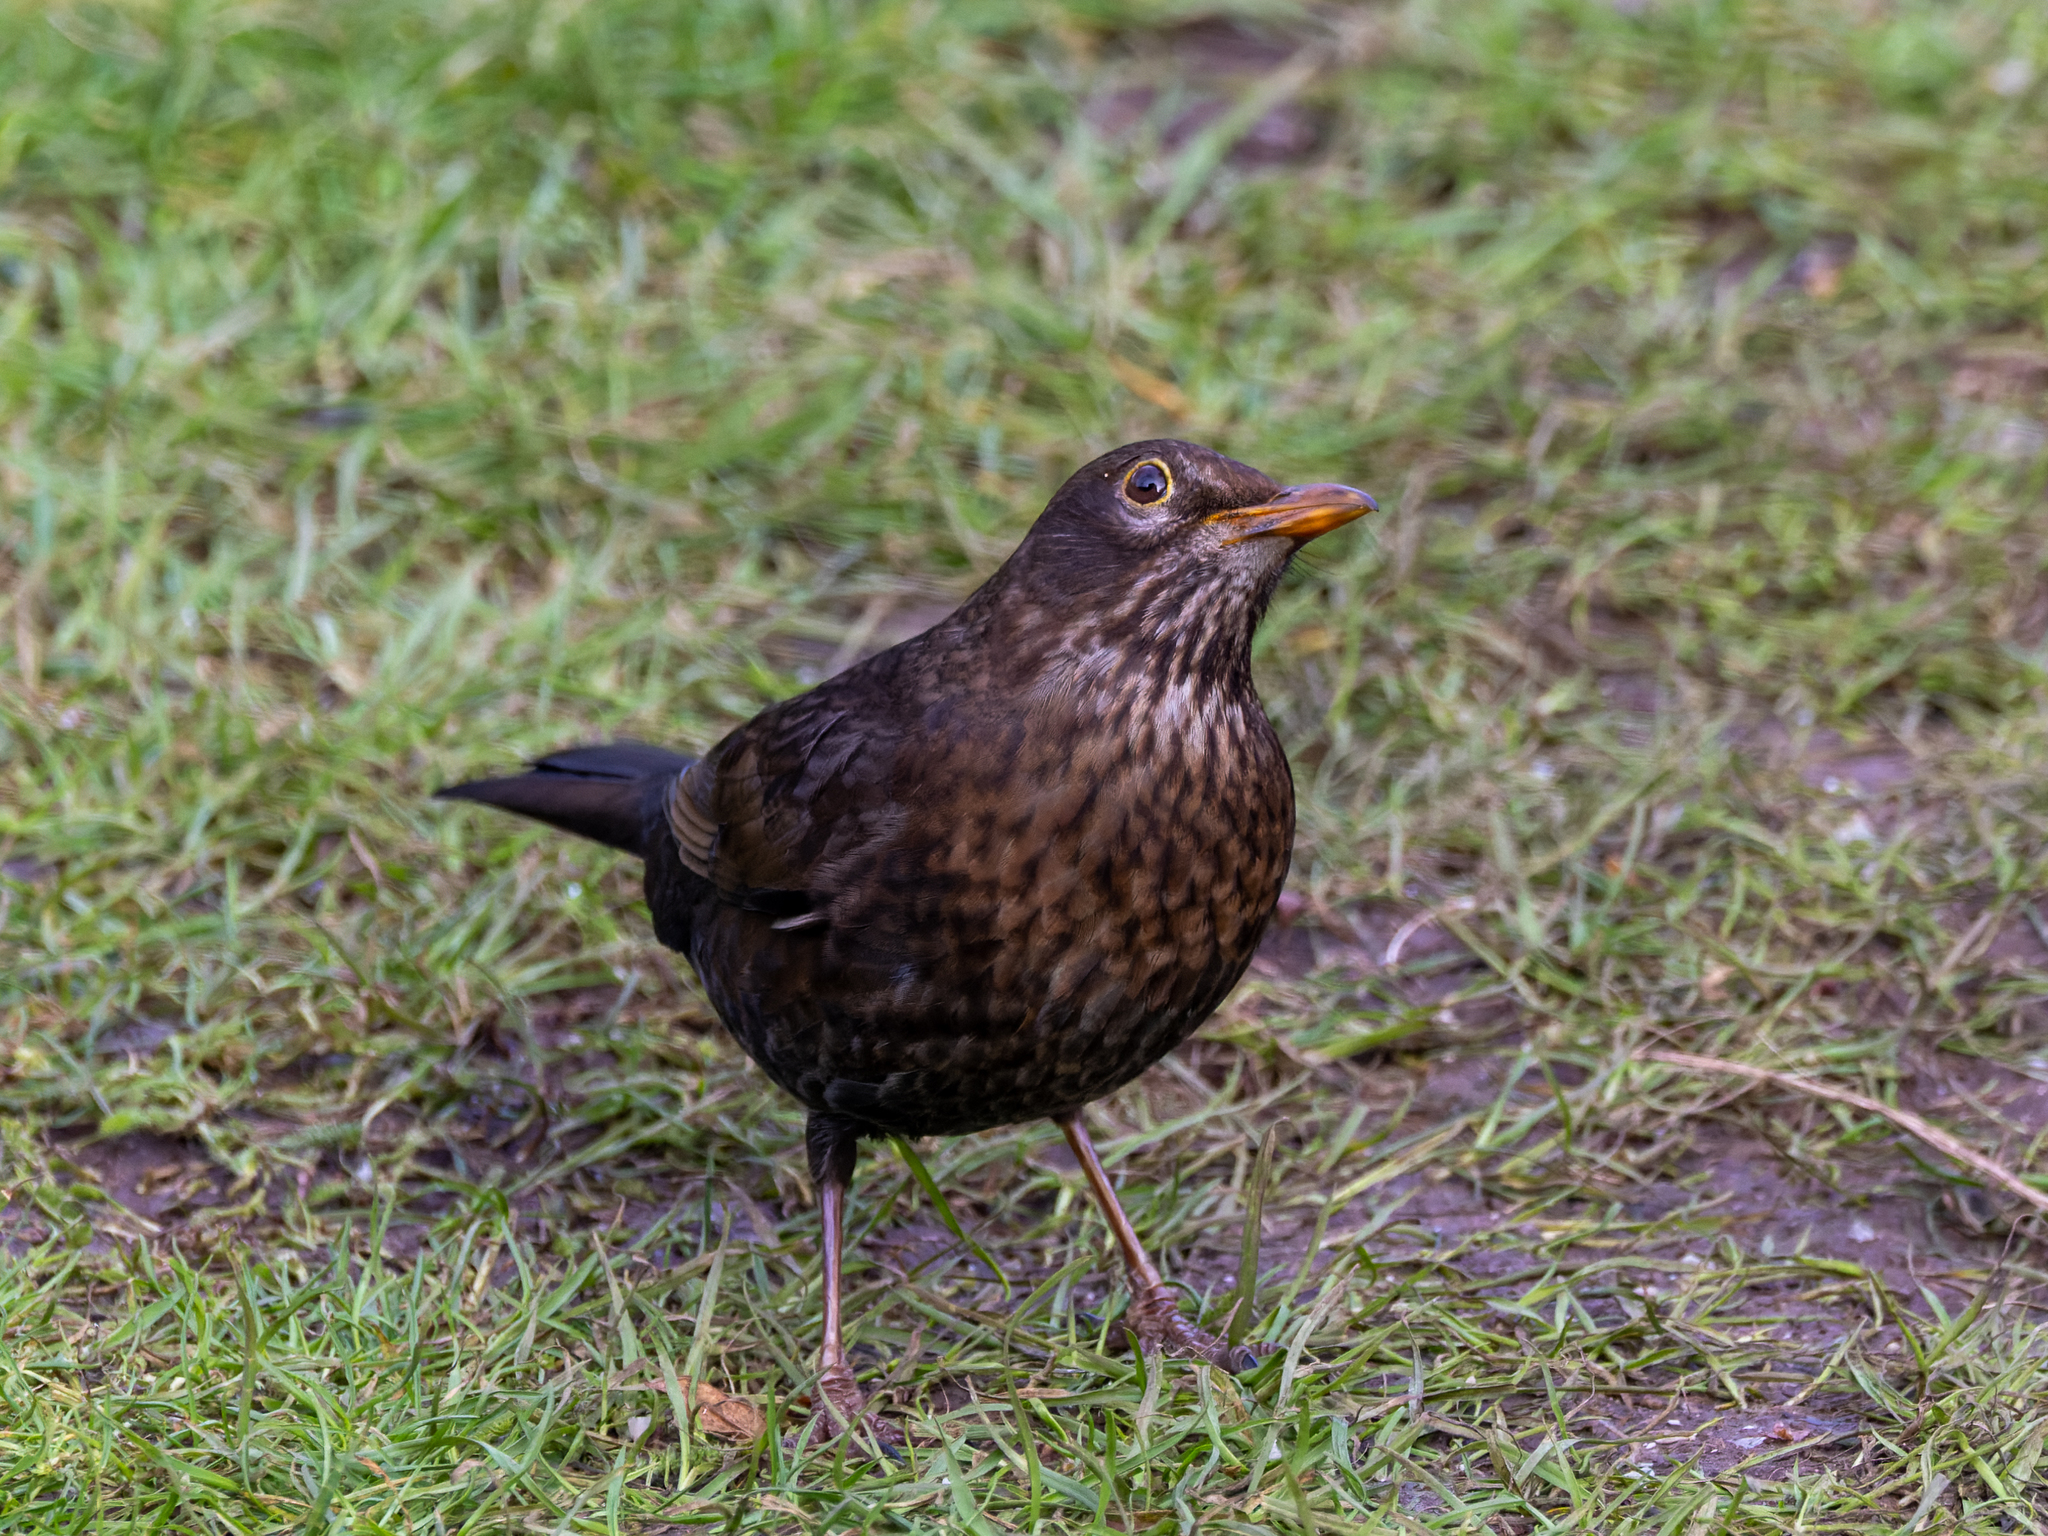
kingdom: Animalia
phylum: Chordata
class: Aves
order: Passeriformes
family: Turdidae
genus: Turdus
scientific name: Turdus merula
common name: Common blackbird
